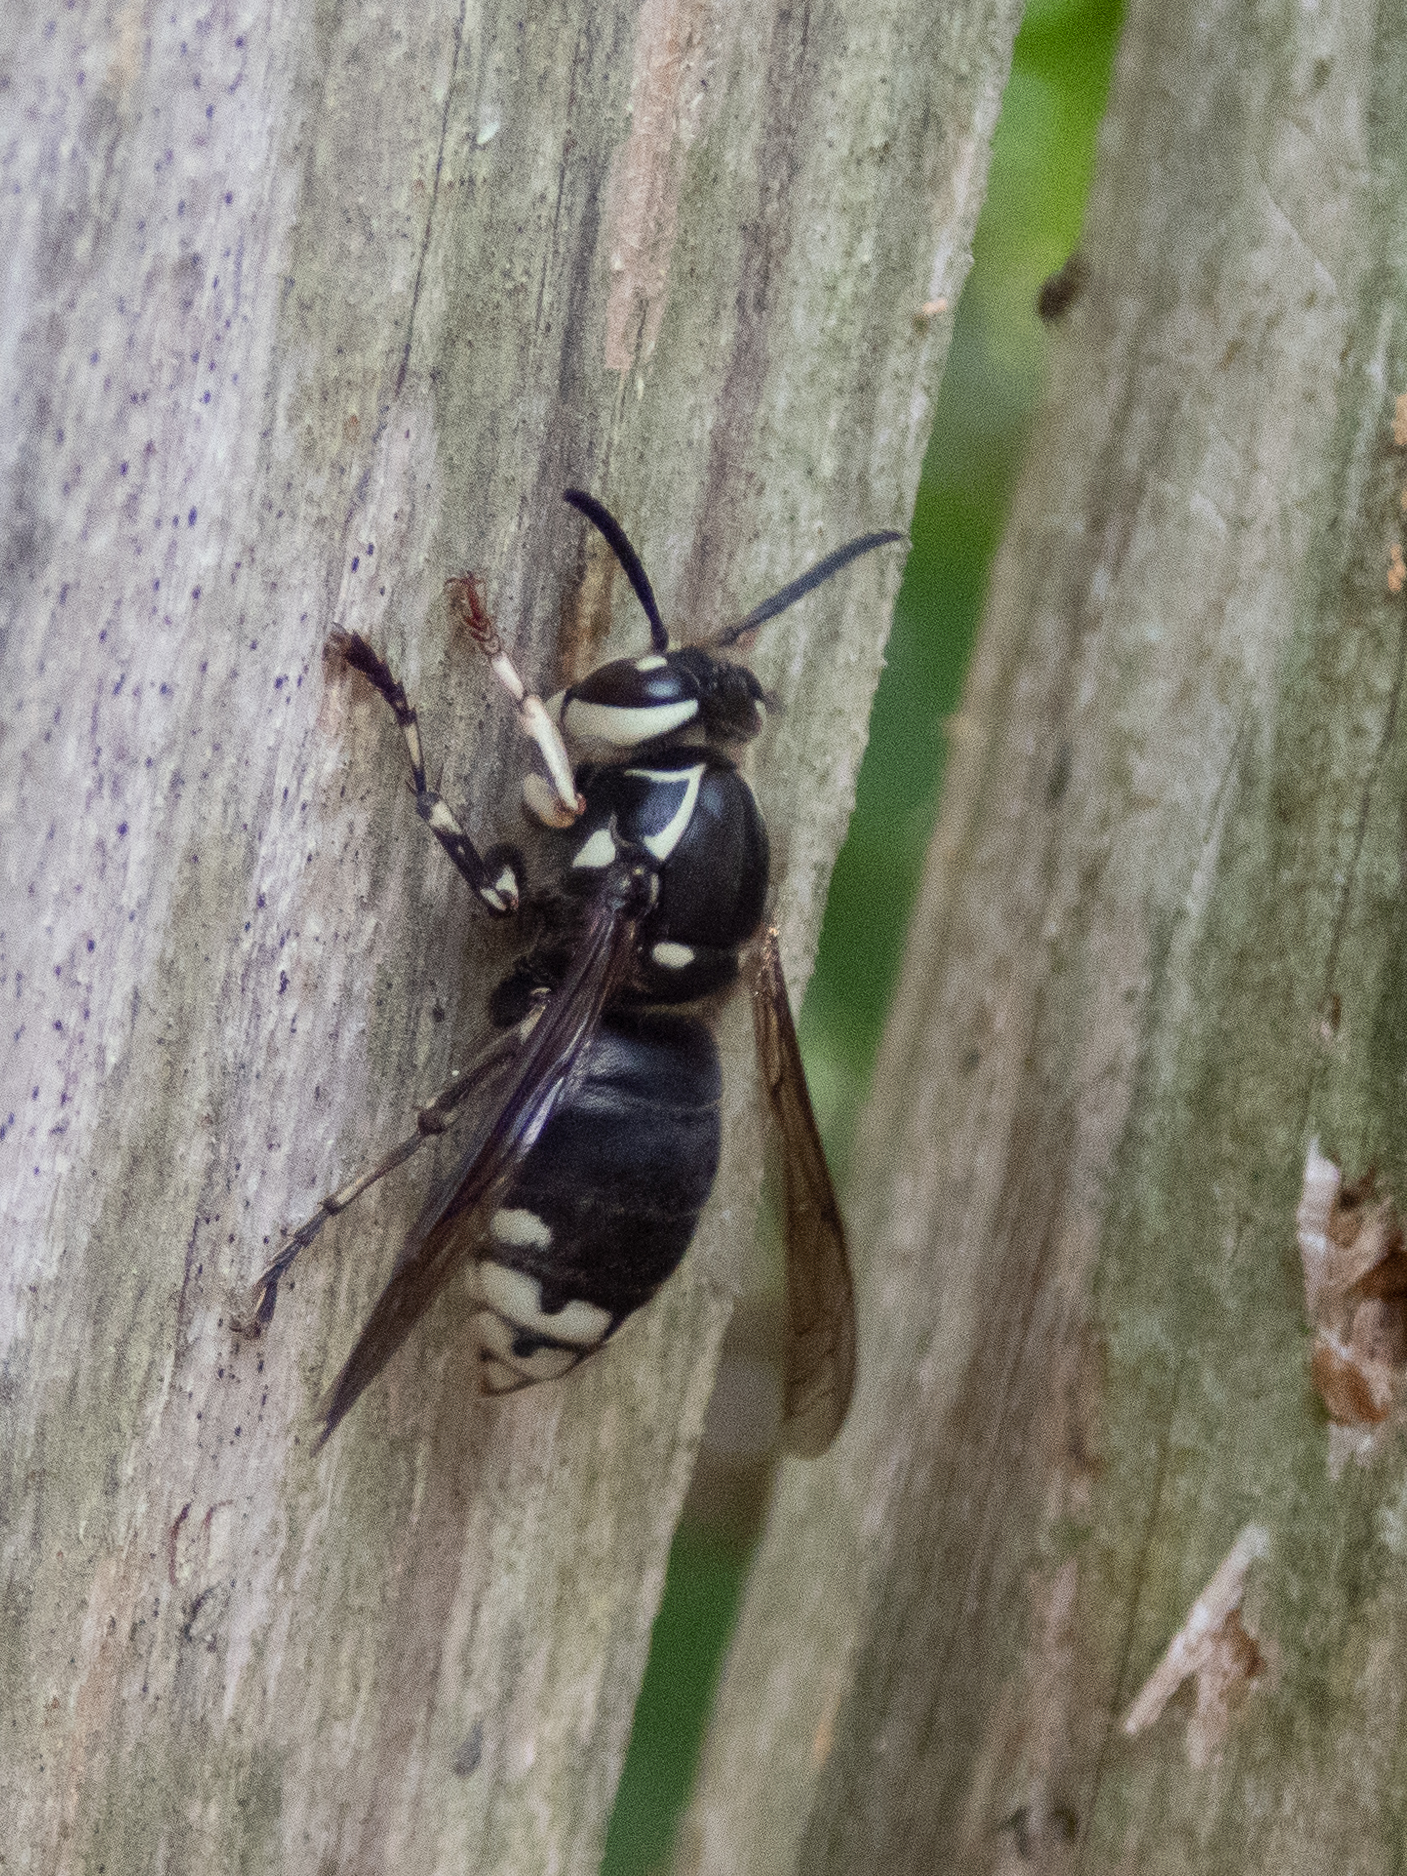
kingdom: Animalia
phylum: Arthropoda
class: Insecta
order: Hymenoptera
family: Vespidae
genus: Dolichovespula
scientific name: Dolichovespula maculata
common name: Bald-faced hornet
